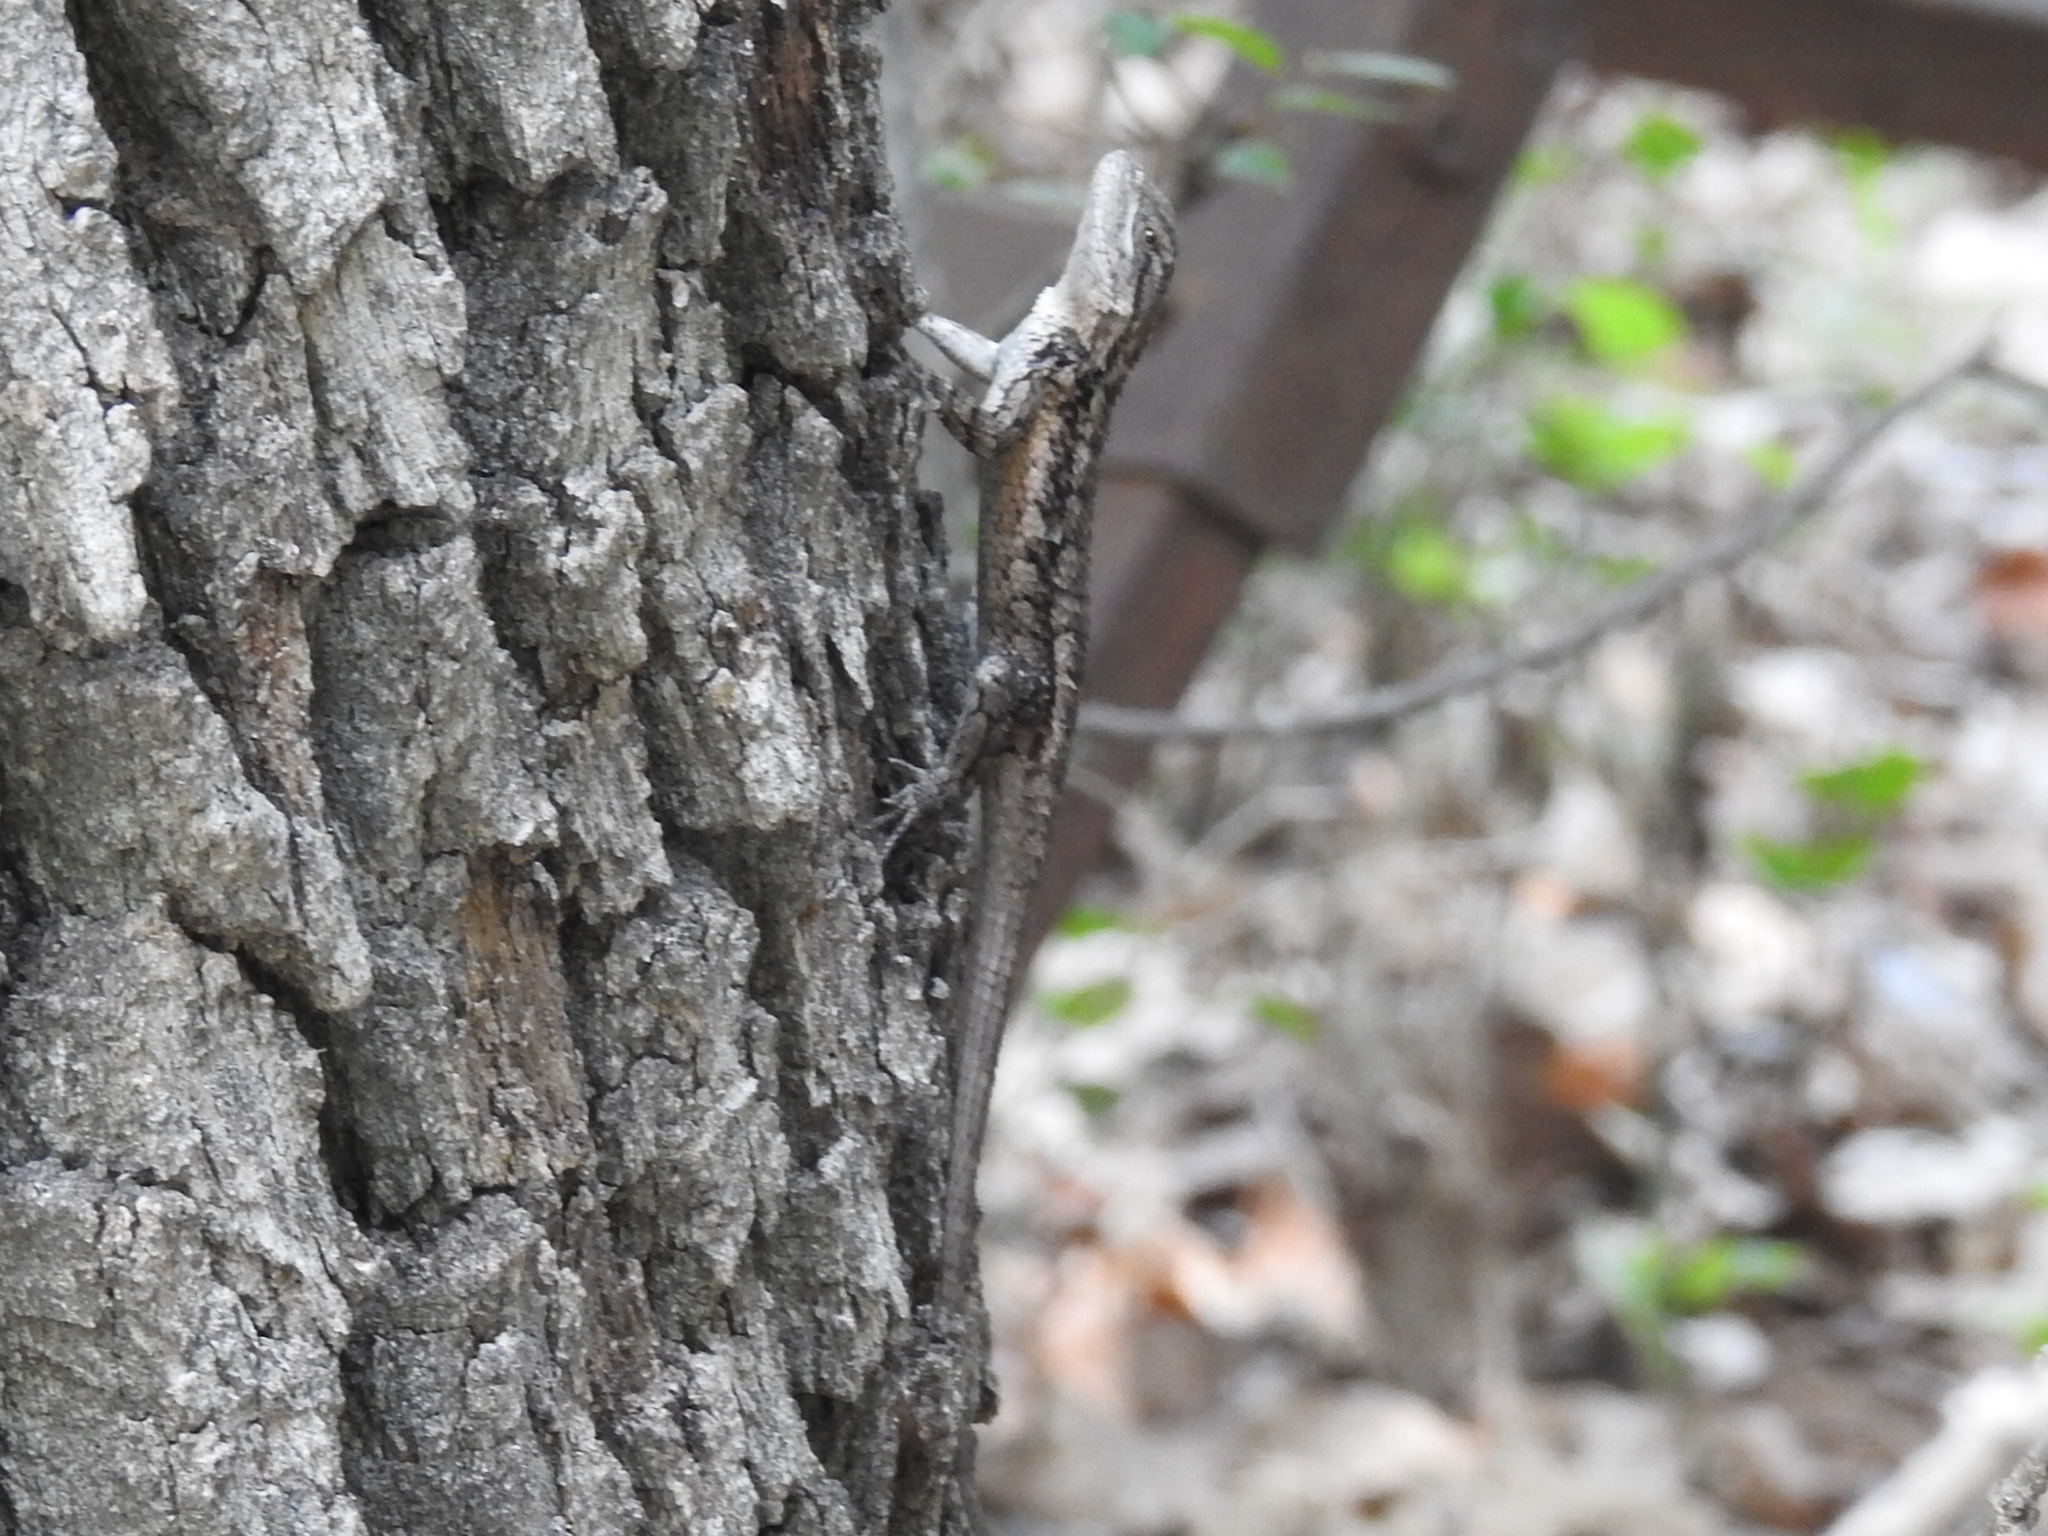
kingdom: Animalia
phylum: Chordata
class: Squamata
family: Phrynosomatidae
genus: Sceloporus
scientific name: Sceloporus olivaceus
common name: Texas spiny lizard
